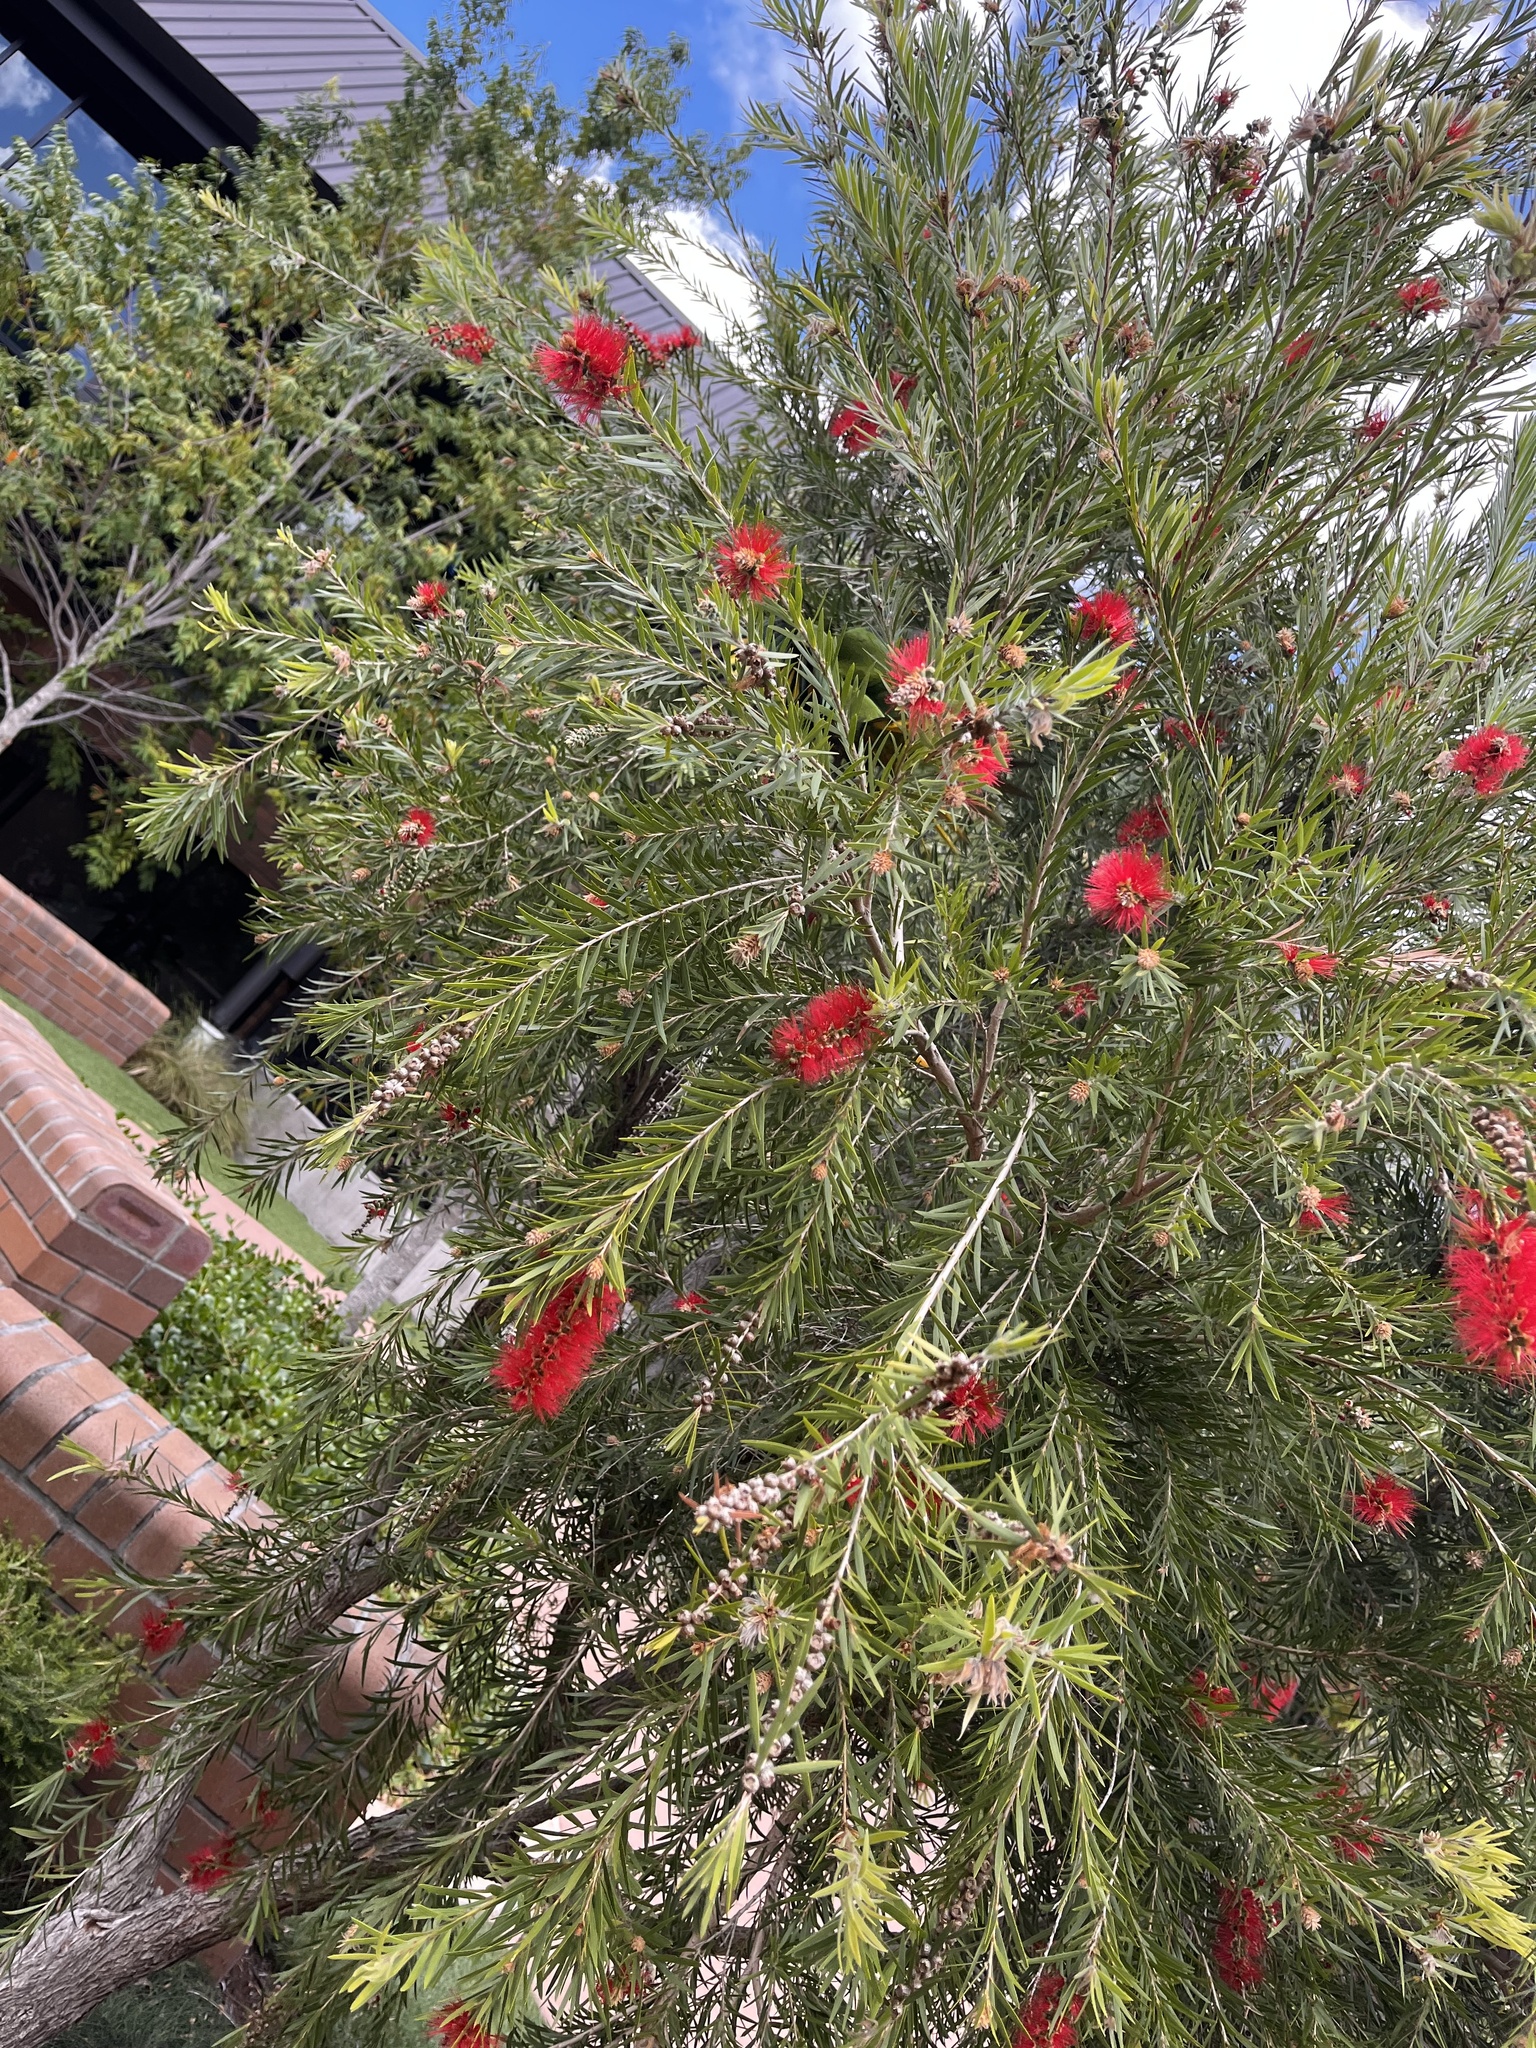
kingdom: Animalia
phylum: Chordata
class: Aves
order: Psittaciformes
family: Psittacidae
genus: Trichoglossus
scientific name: Trichoglossus haematodus
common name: Coconut lorikeet
